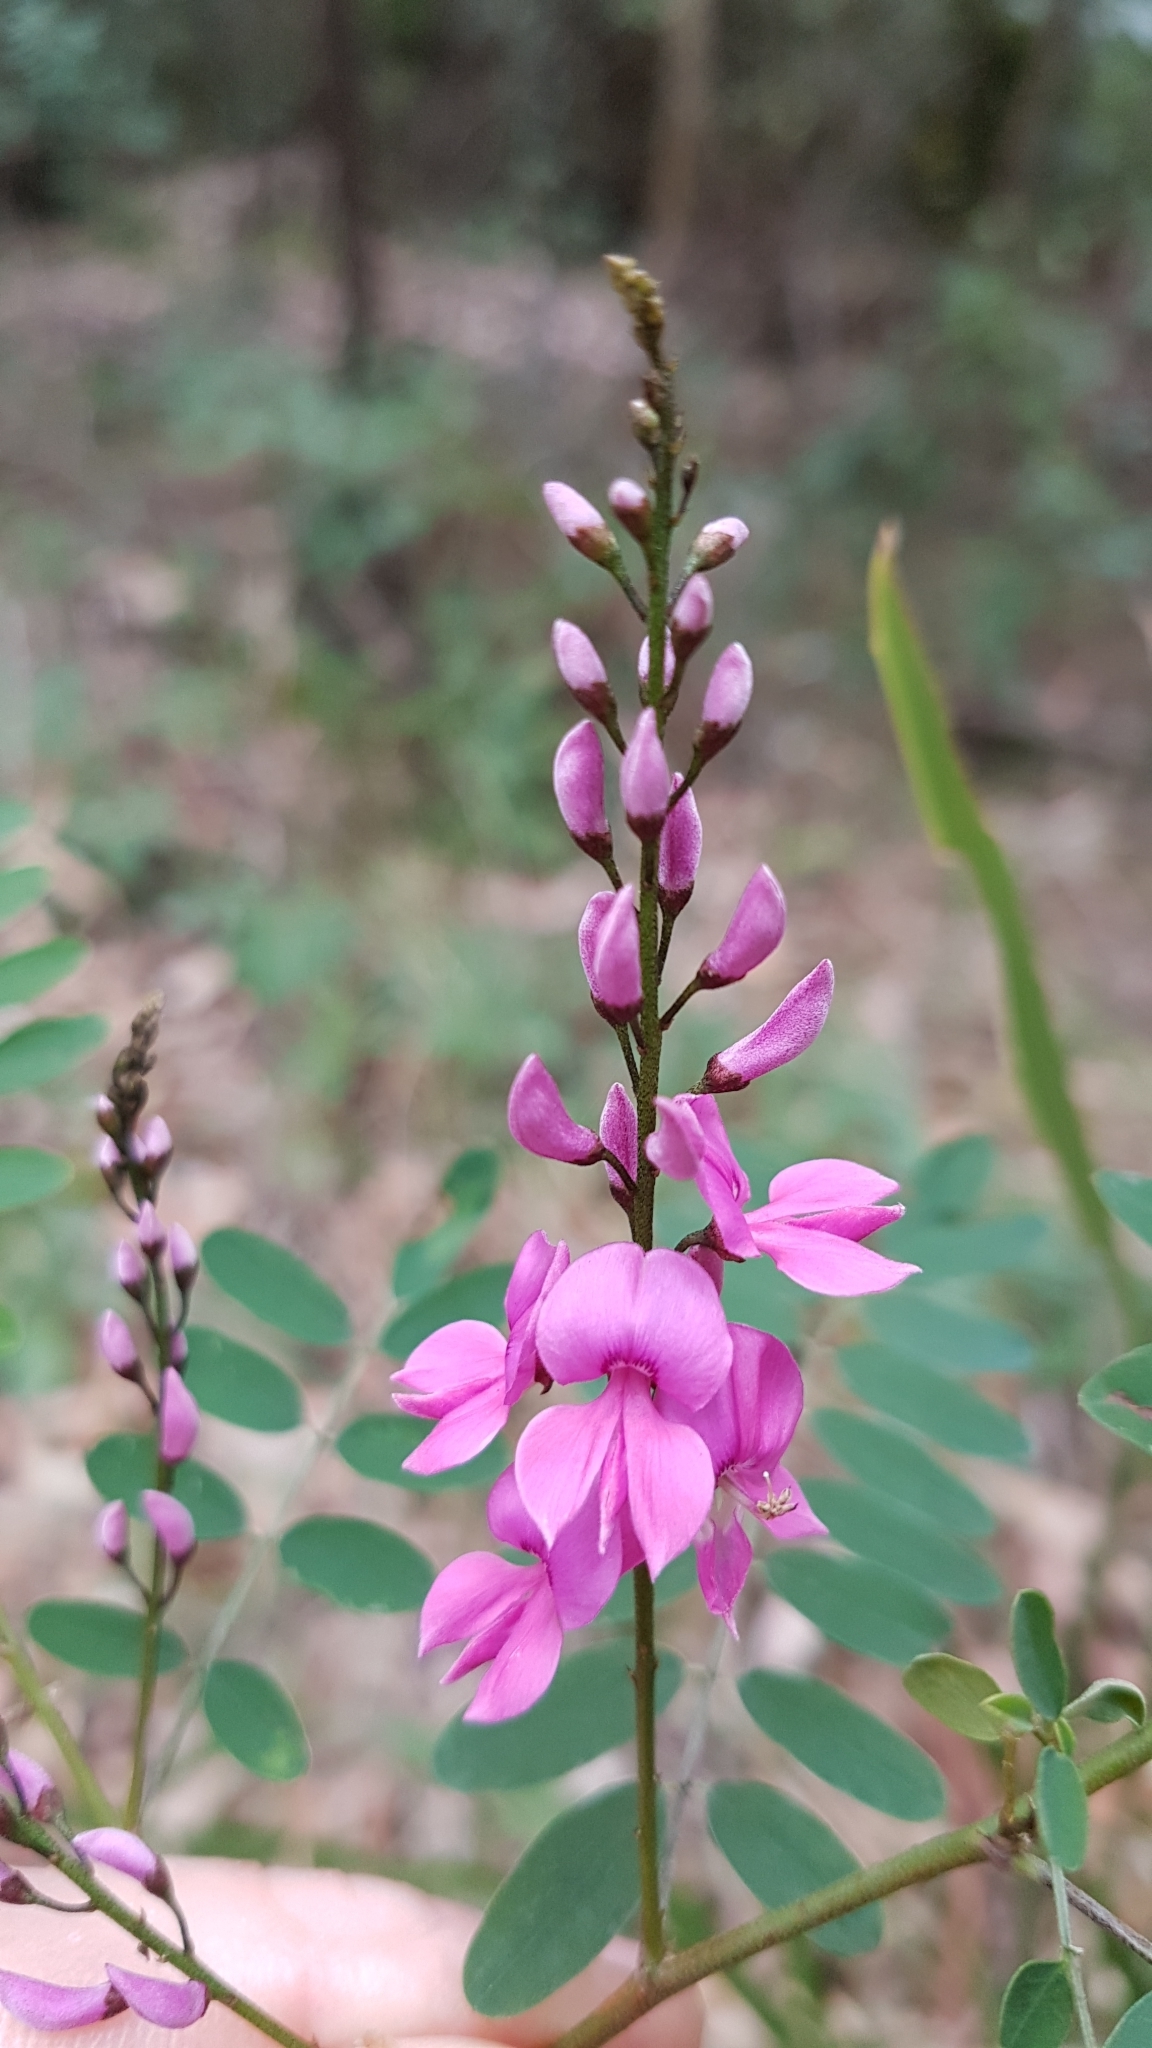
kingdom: Plantae
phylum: Tracheophyta
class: Magnoliopsida
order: Fabales
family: Fabaceae
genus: Indigofera
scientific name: Indigofera australis
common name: Australian indigo
